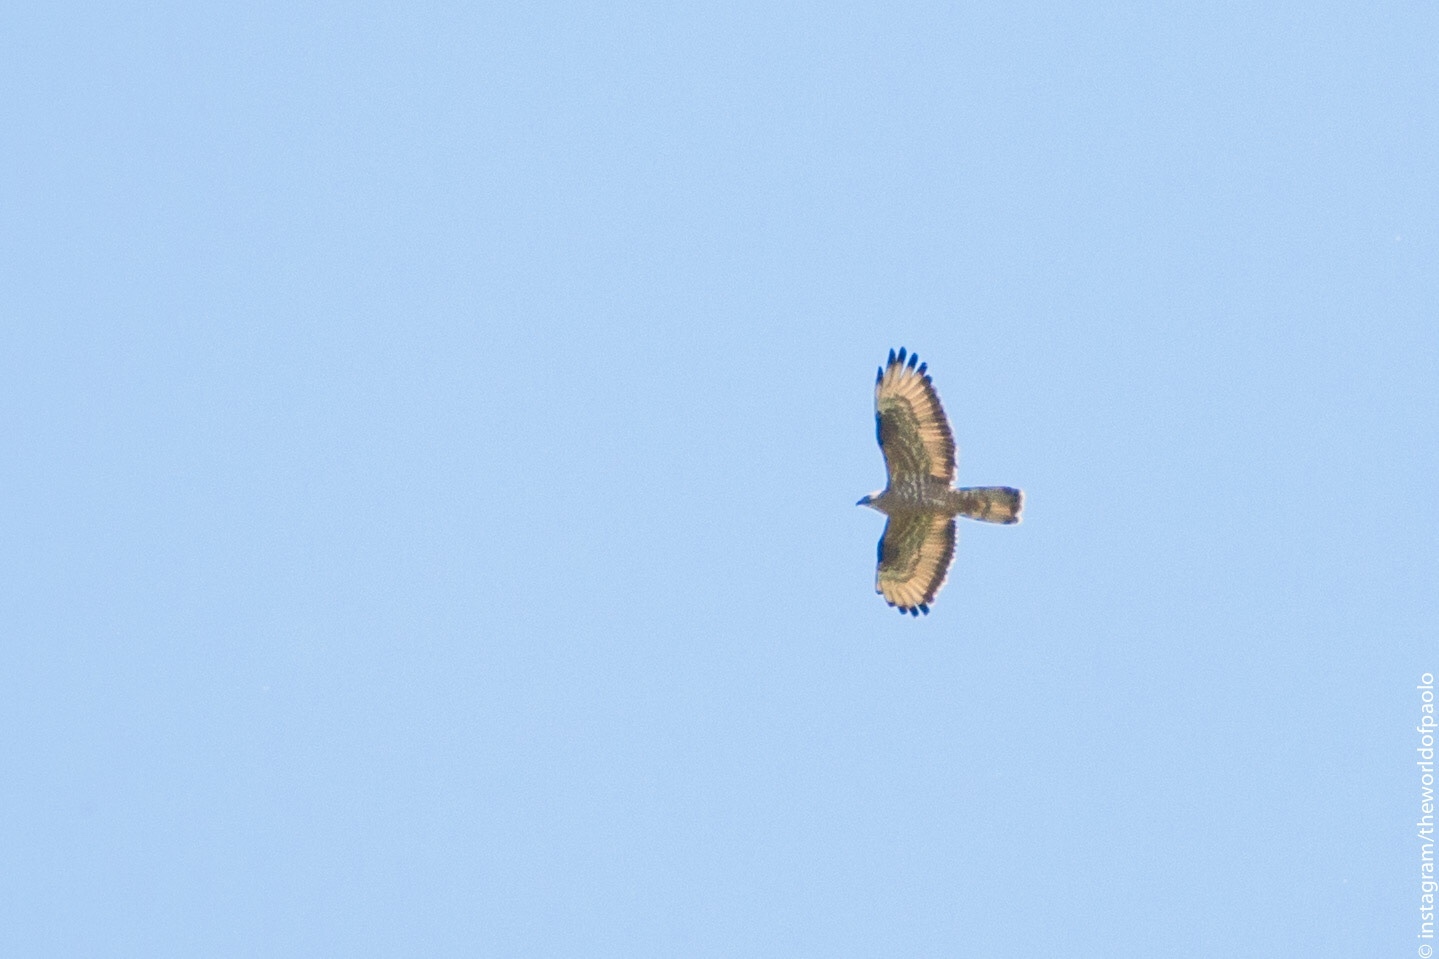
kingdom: Animalia
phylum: Chordata
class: Aves
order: Accipitriformes
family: Accipitridae
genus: Pernis
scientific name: Pernis apivorus
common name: European honey buzzard
